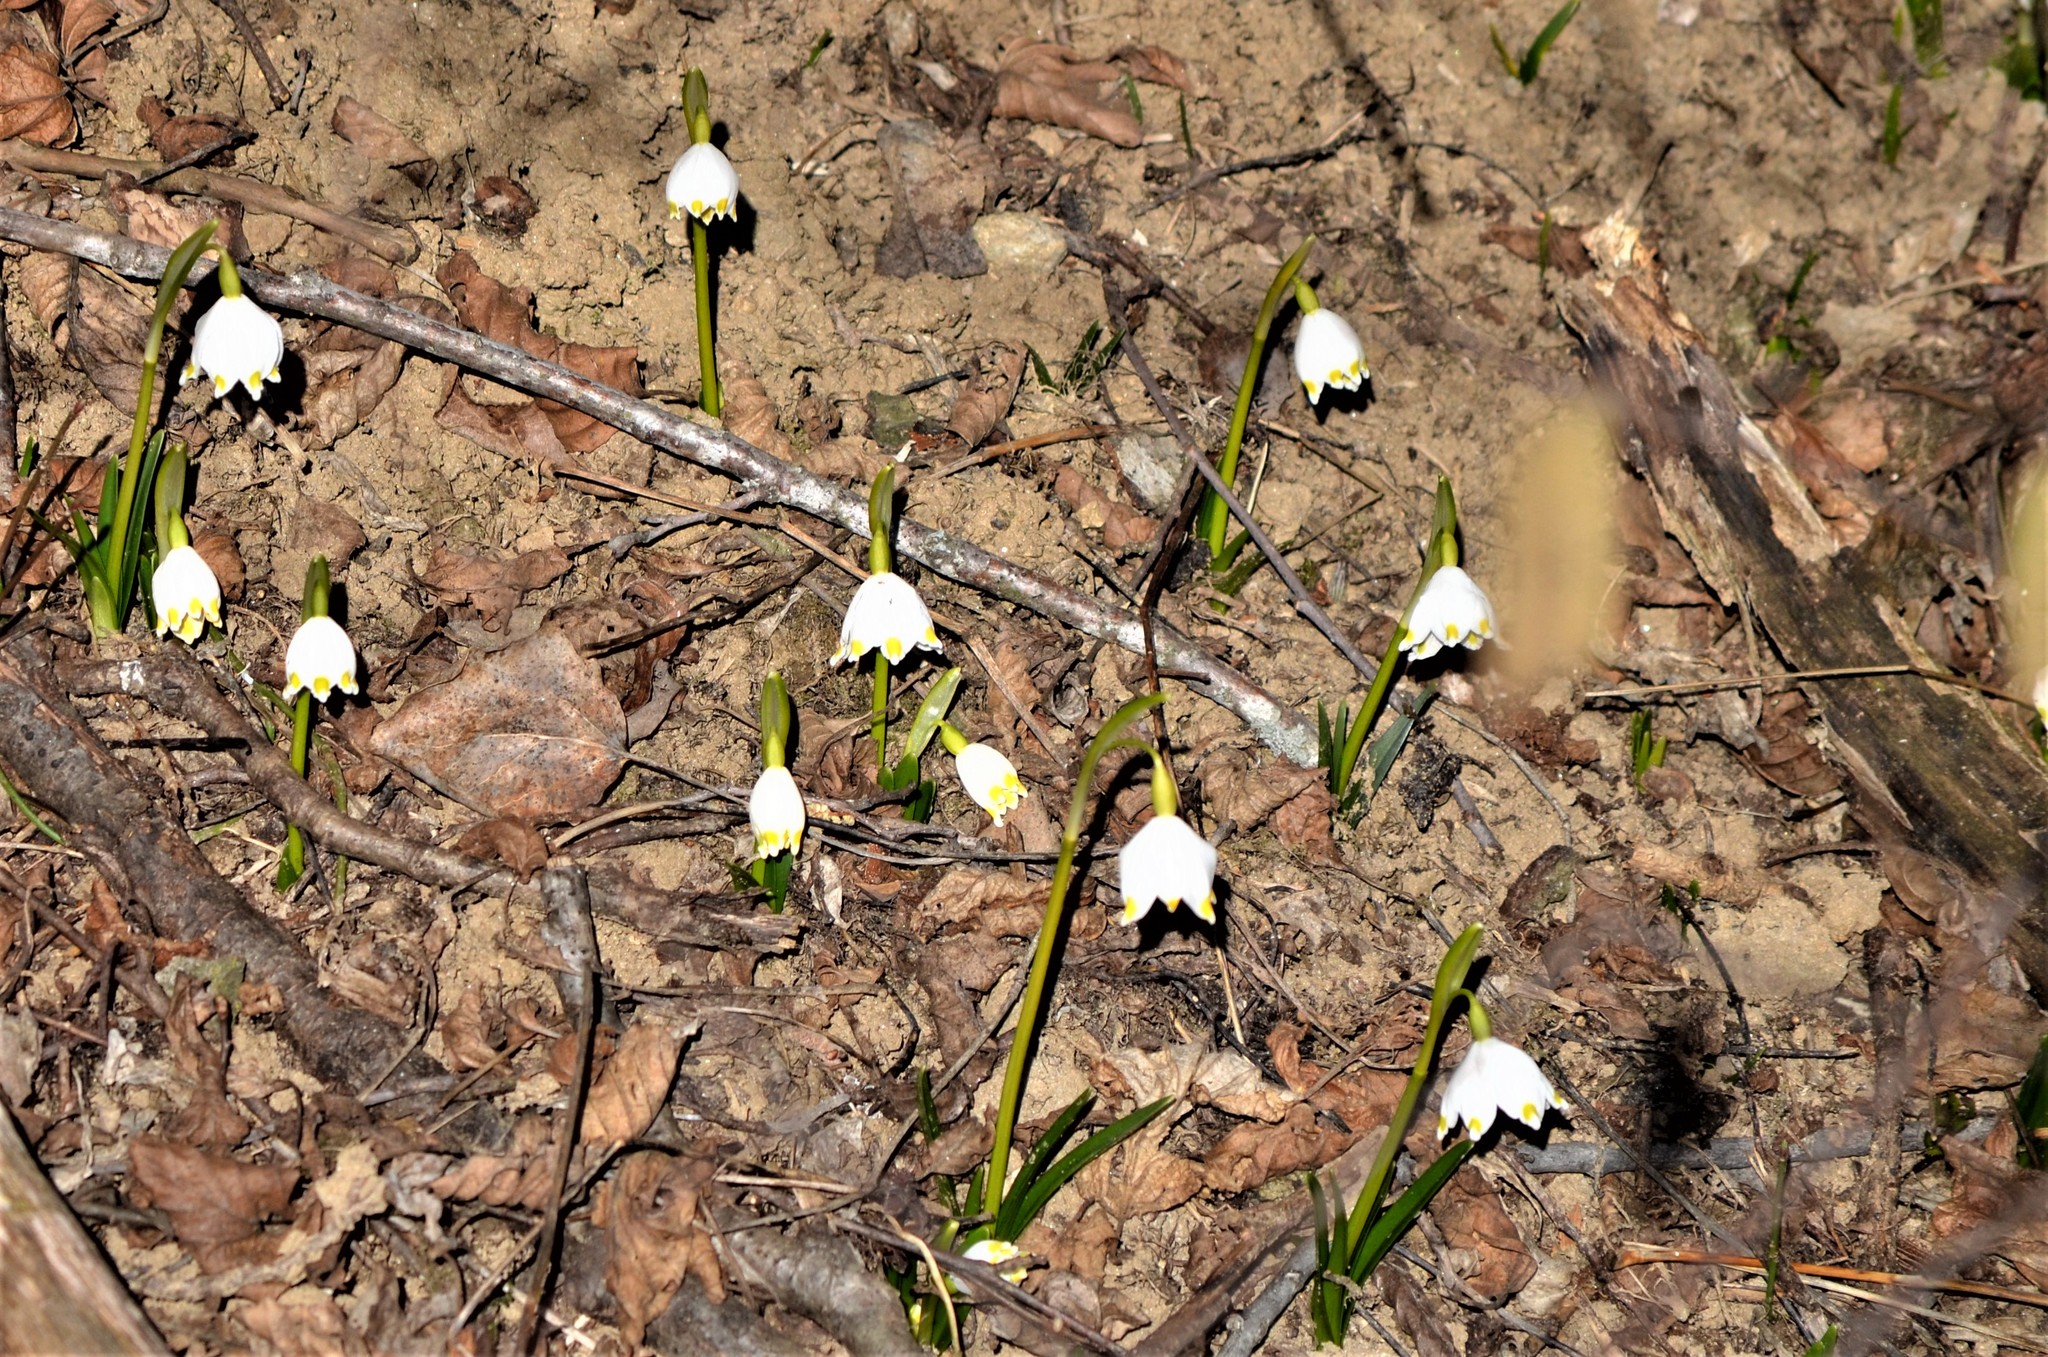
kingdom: Plantae
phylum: Tracheophyta
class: Liliopsida
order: Asparagales
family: Amaryllidaceae
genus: Leucojum
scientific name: Leucojum vernum
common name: Spring snowflake
